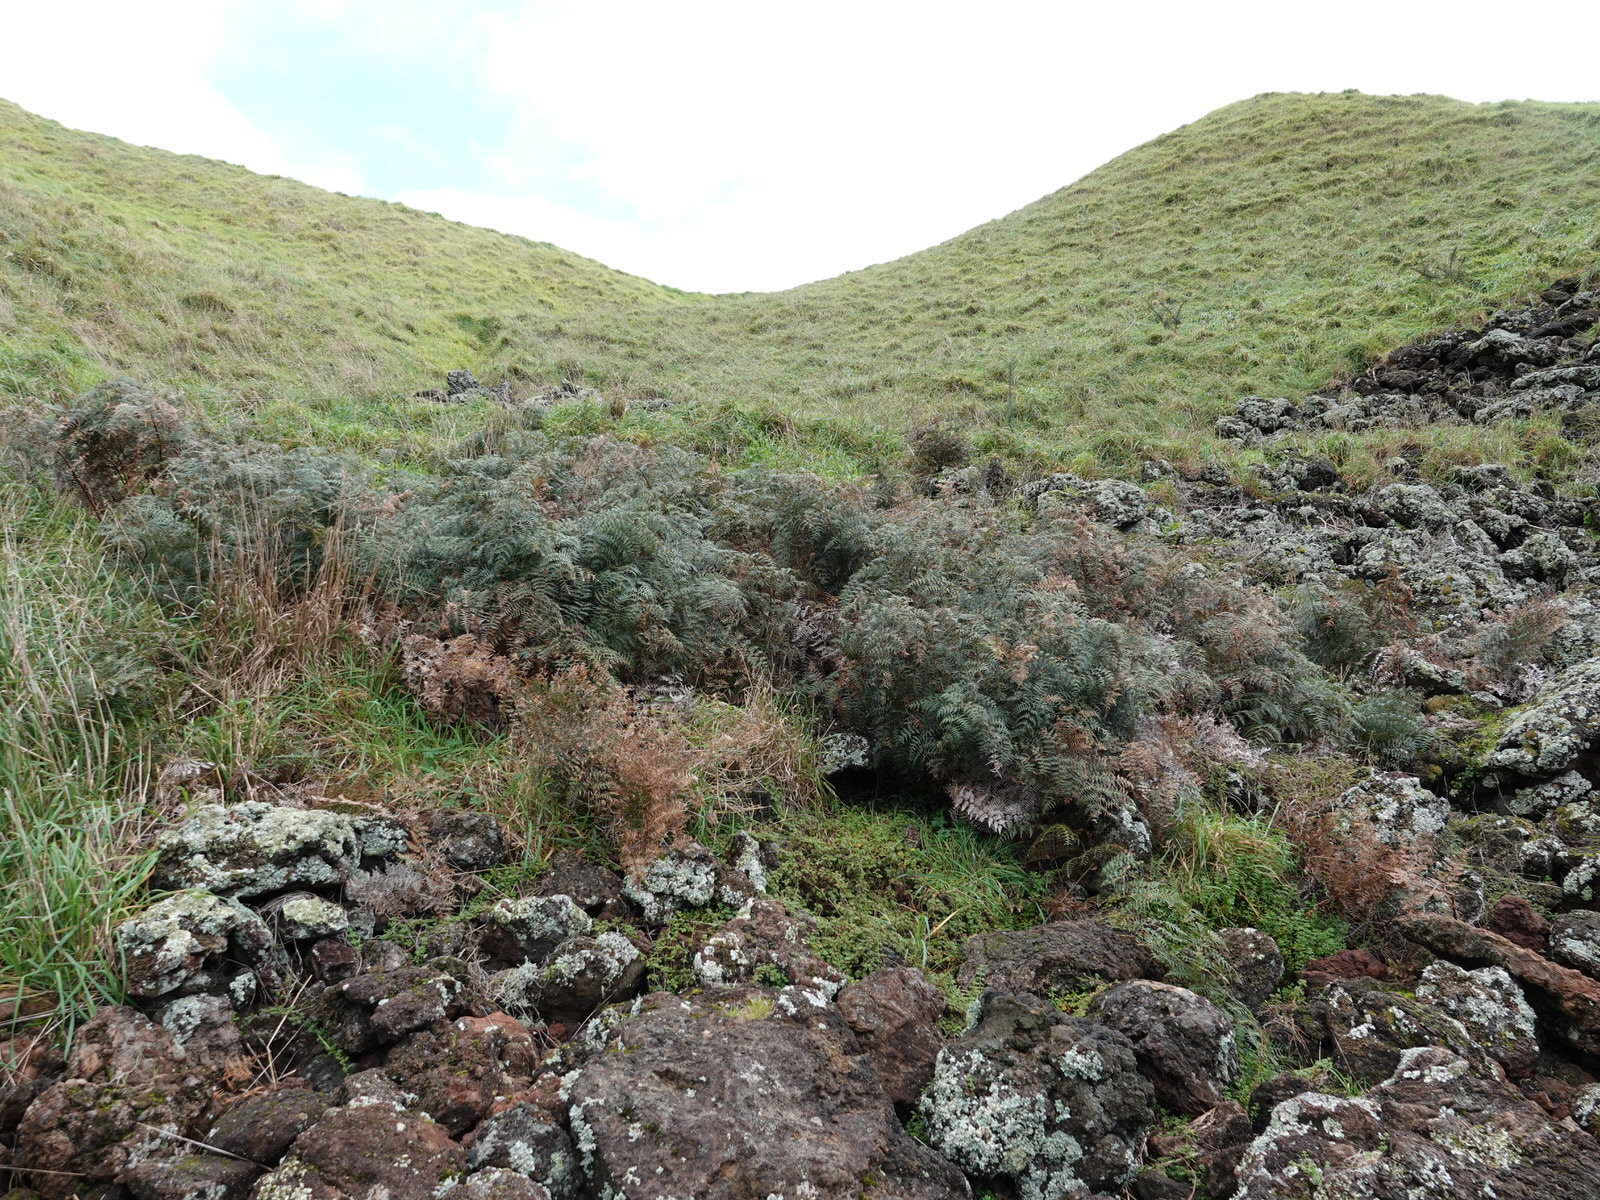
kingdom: Plantae
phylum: Tracheophyta
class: Polypodiopsida
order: Polypodiales
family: Dennstaedtiaceae
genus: Pteridium
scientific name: Pteridium esculentum
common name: Bracken fern
